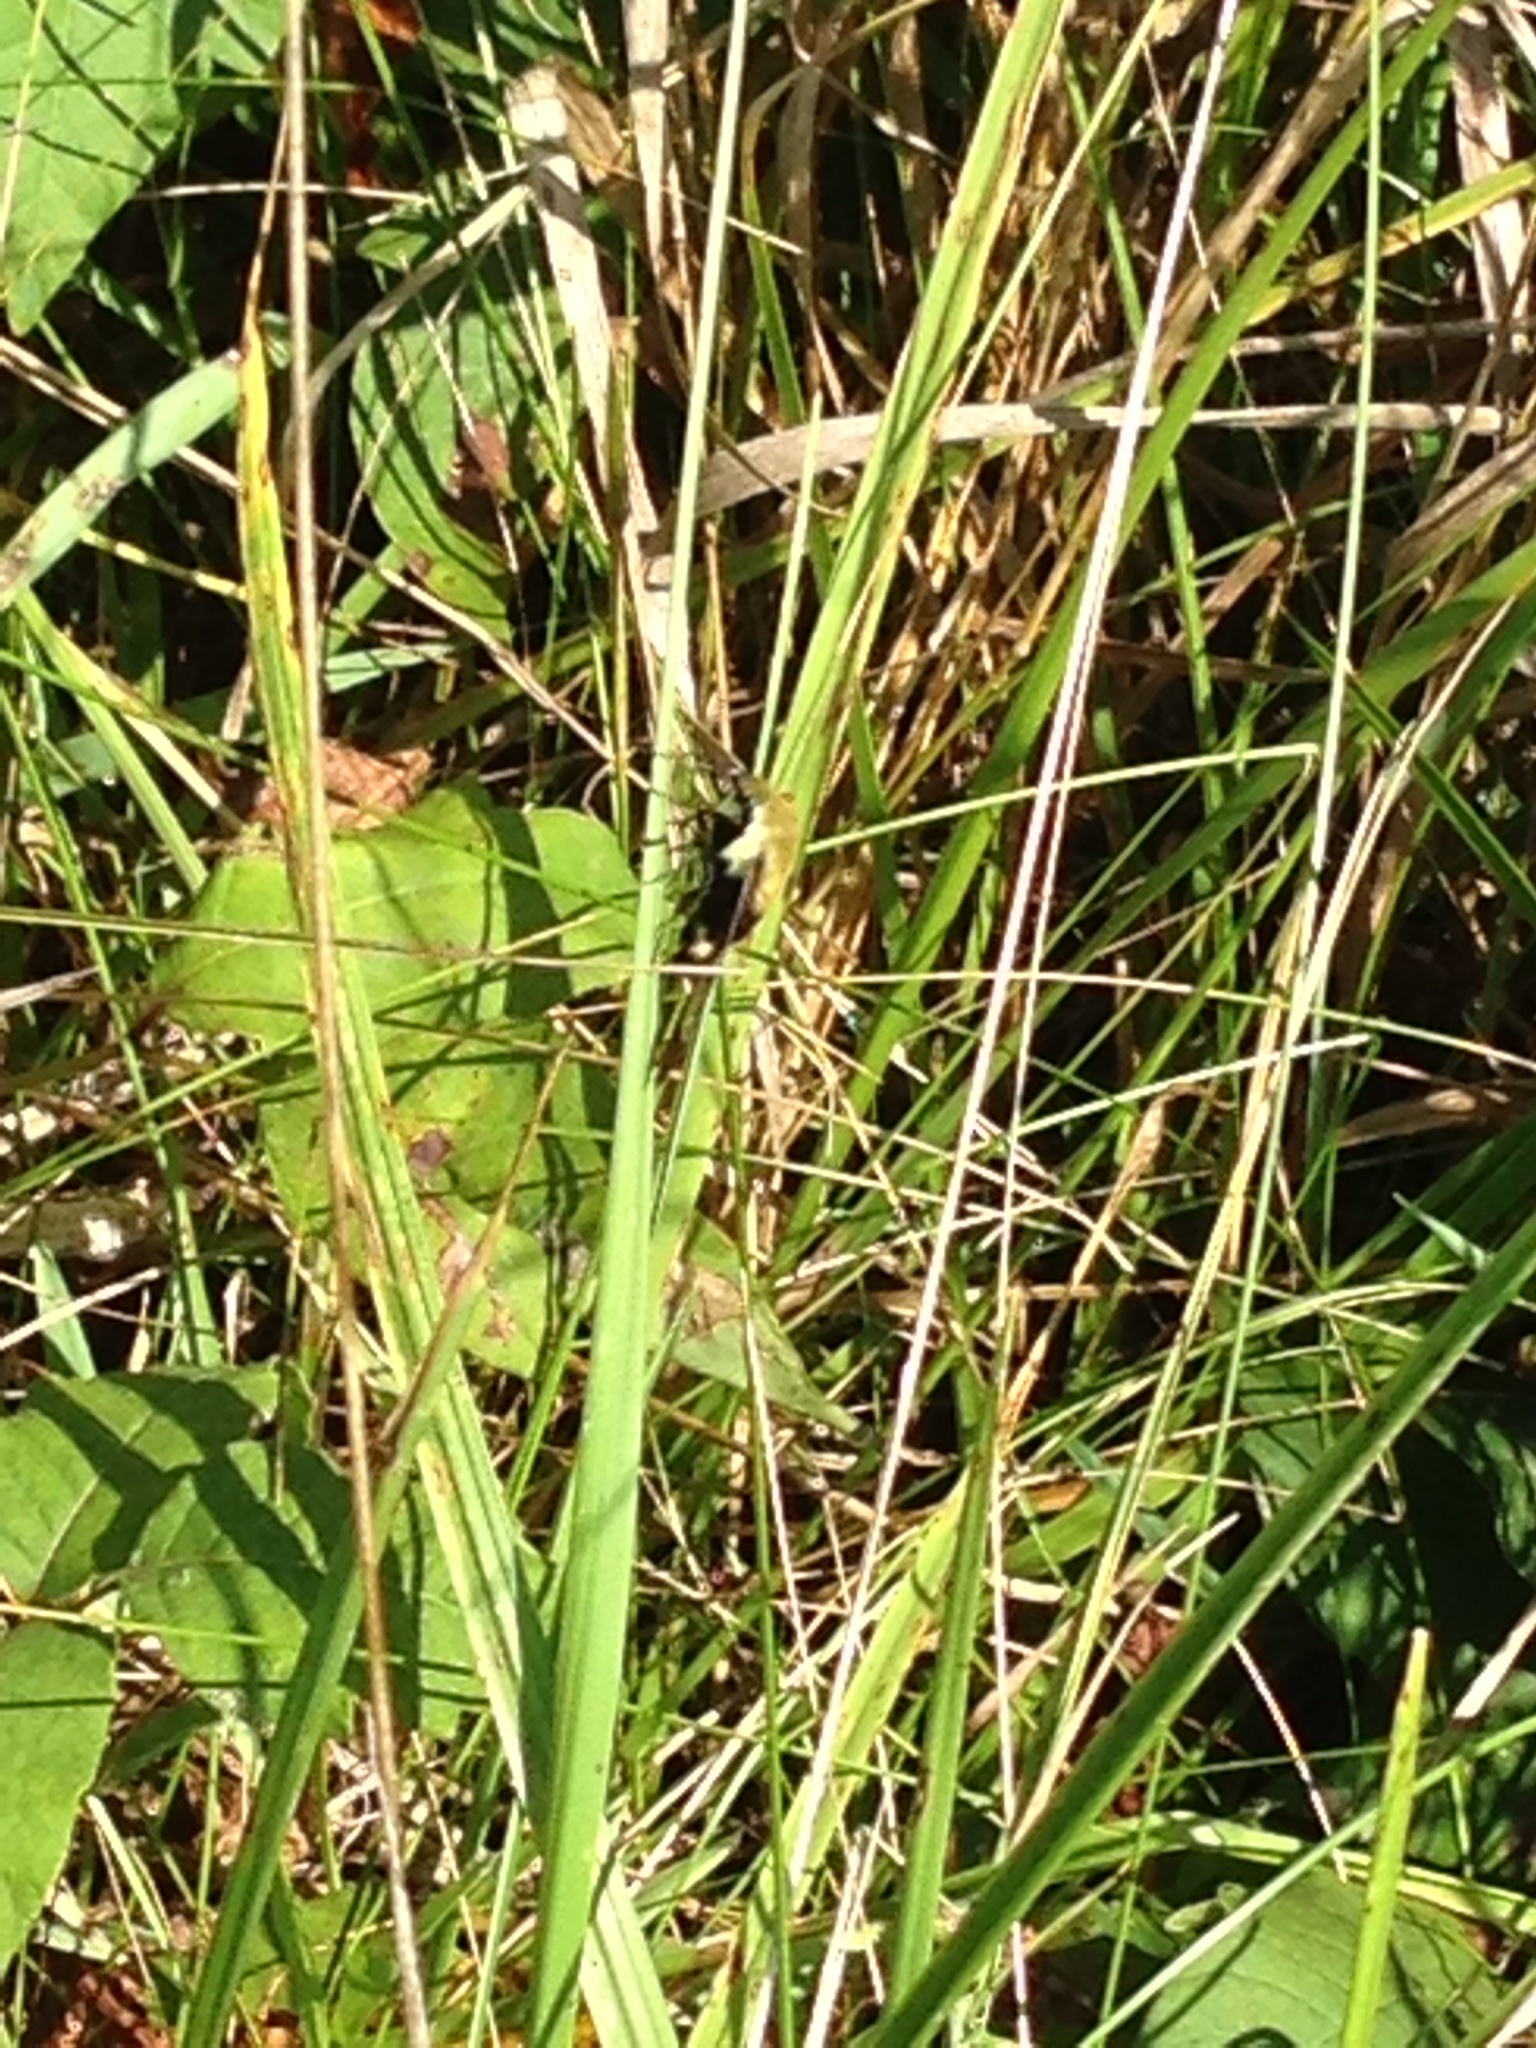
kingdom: Animalia
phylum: Arthropoda
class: Insecta
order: Lepidoptera
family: Sphingidae
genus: Hemaris
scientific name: Hemaris diffinis
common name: Bumblebee moth
